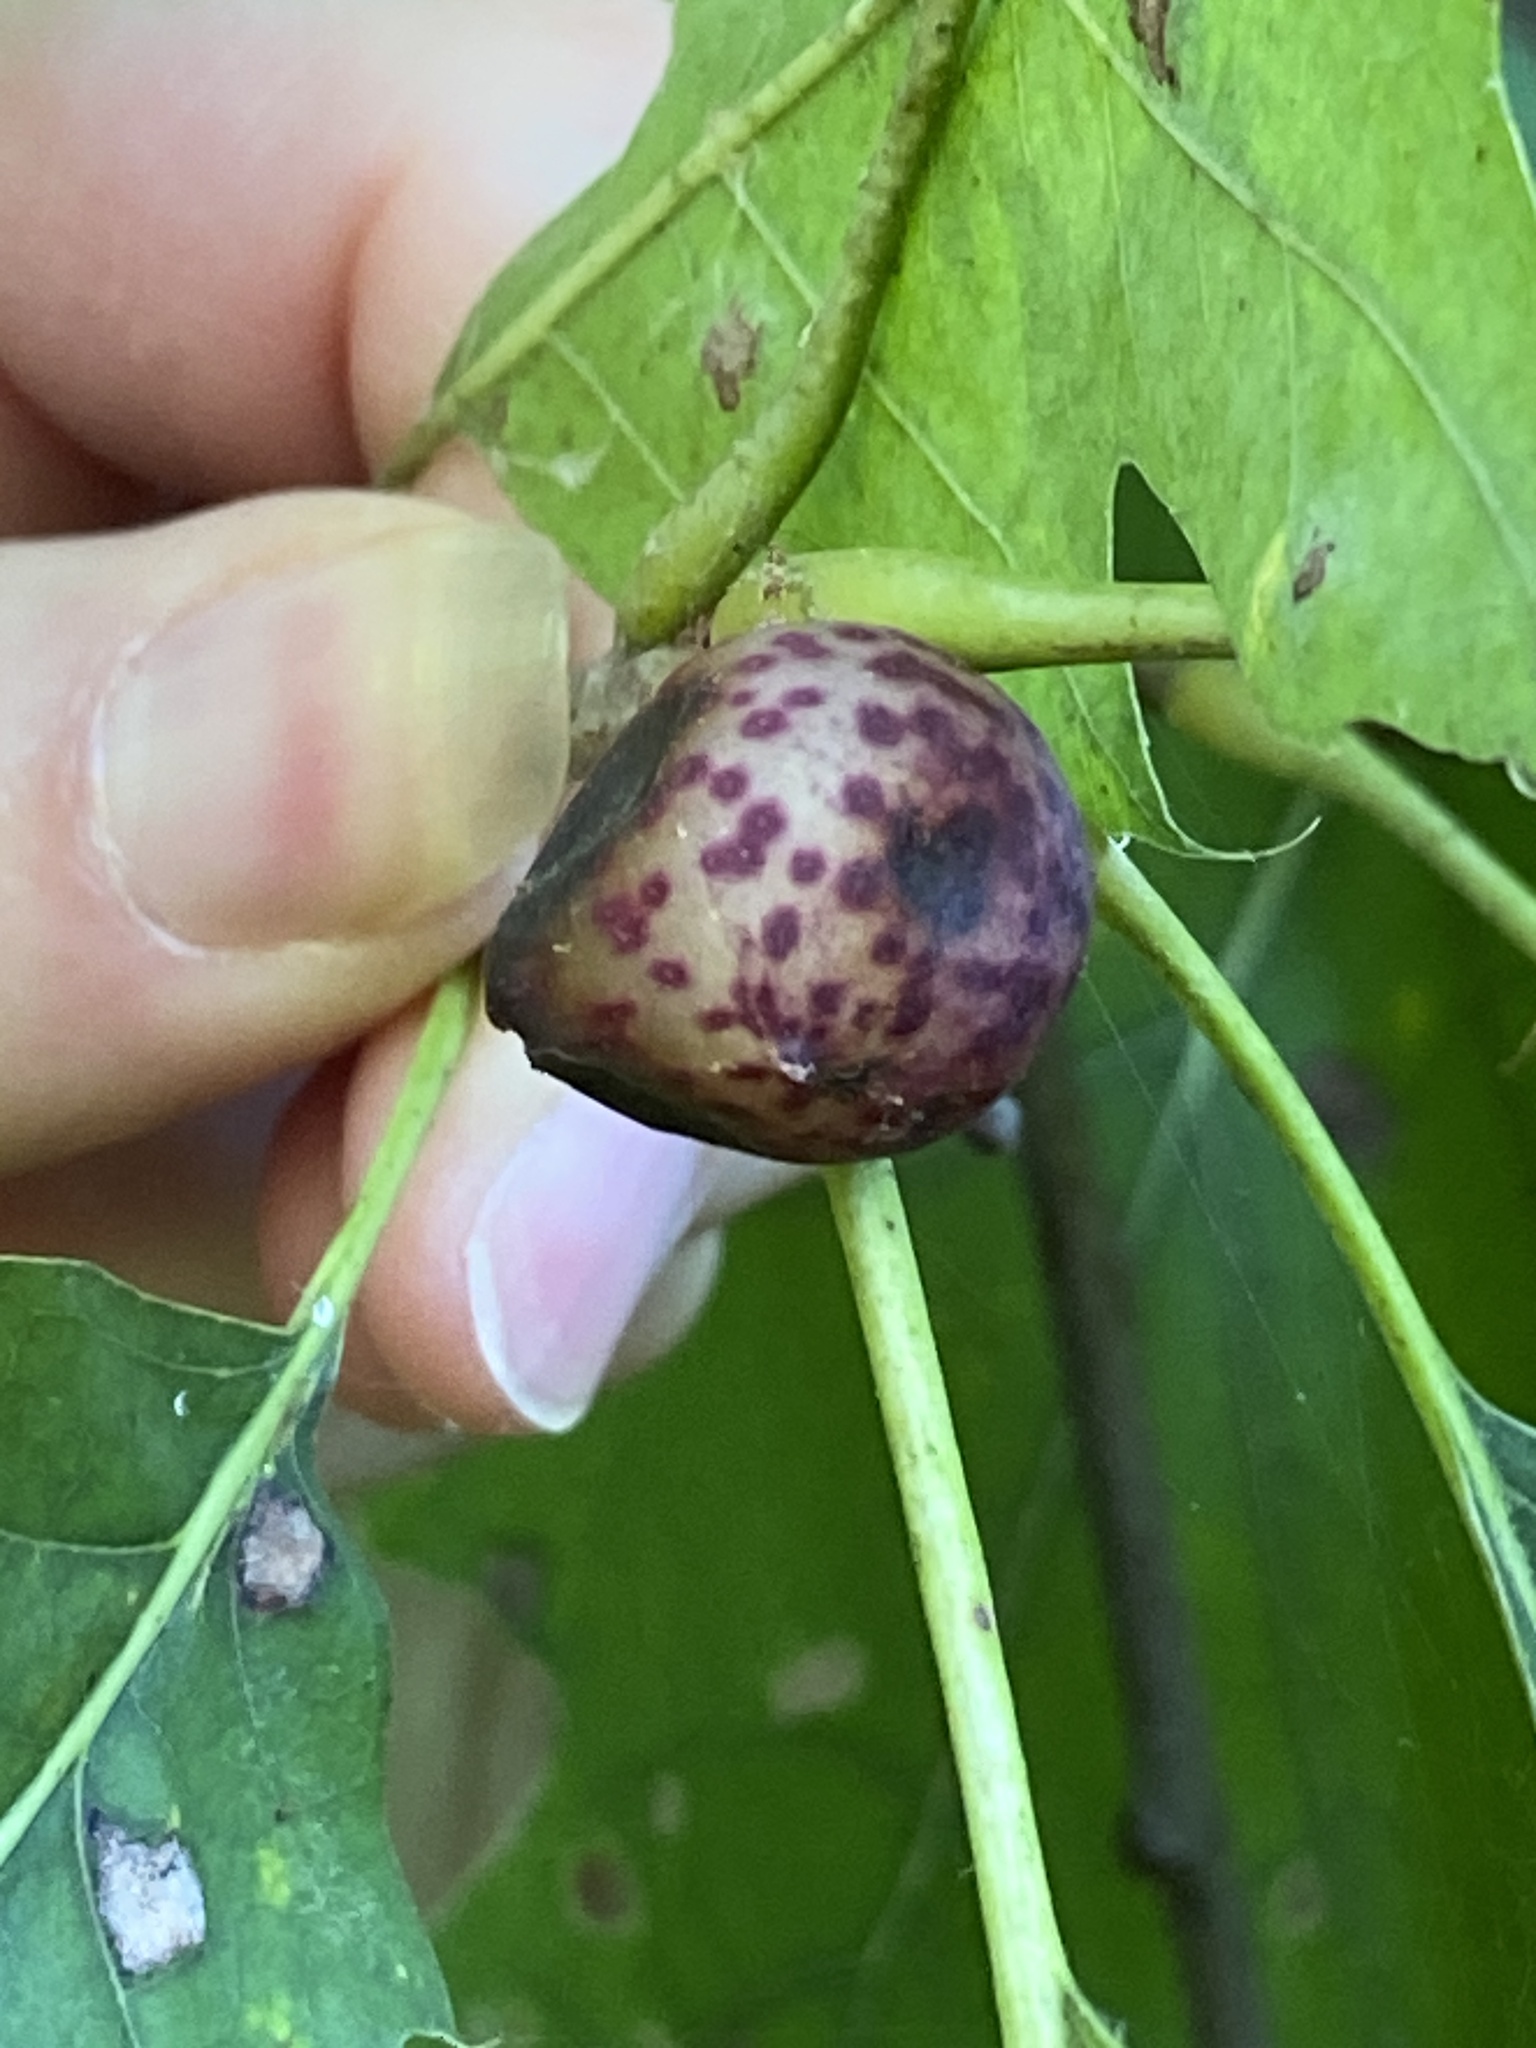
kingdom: Animalia
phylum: Arthropoda
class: Insecta
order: Hymenoptera
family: Cynipidae
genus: Amphibolips
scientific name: Amphibolips
